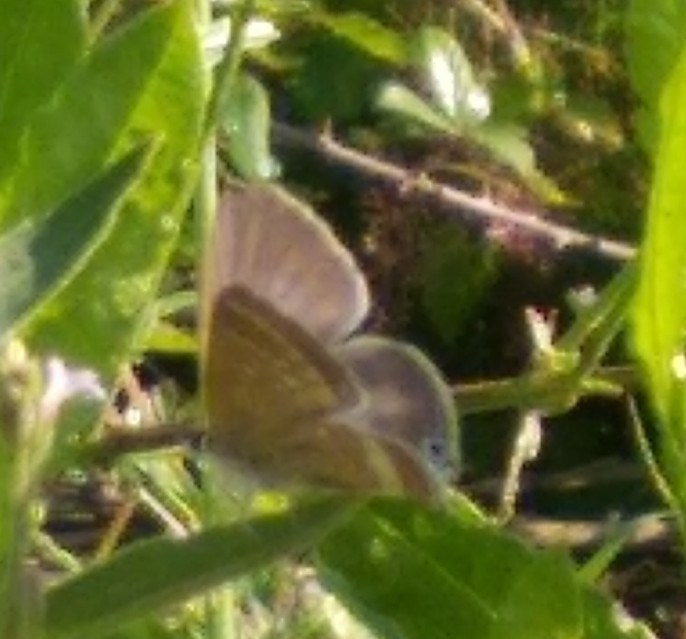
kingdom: Animalia
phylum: Arthropoda
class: Insecta
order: Lepidoptera
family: Lycaenidae
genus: Lampides
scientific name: Lampides boeticus
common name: Long-tailed blue
